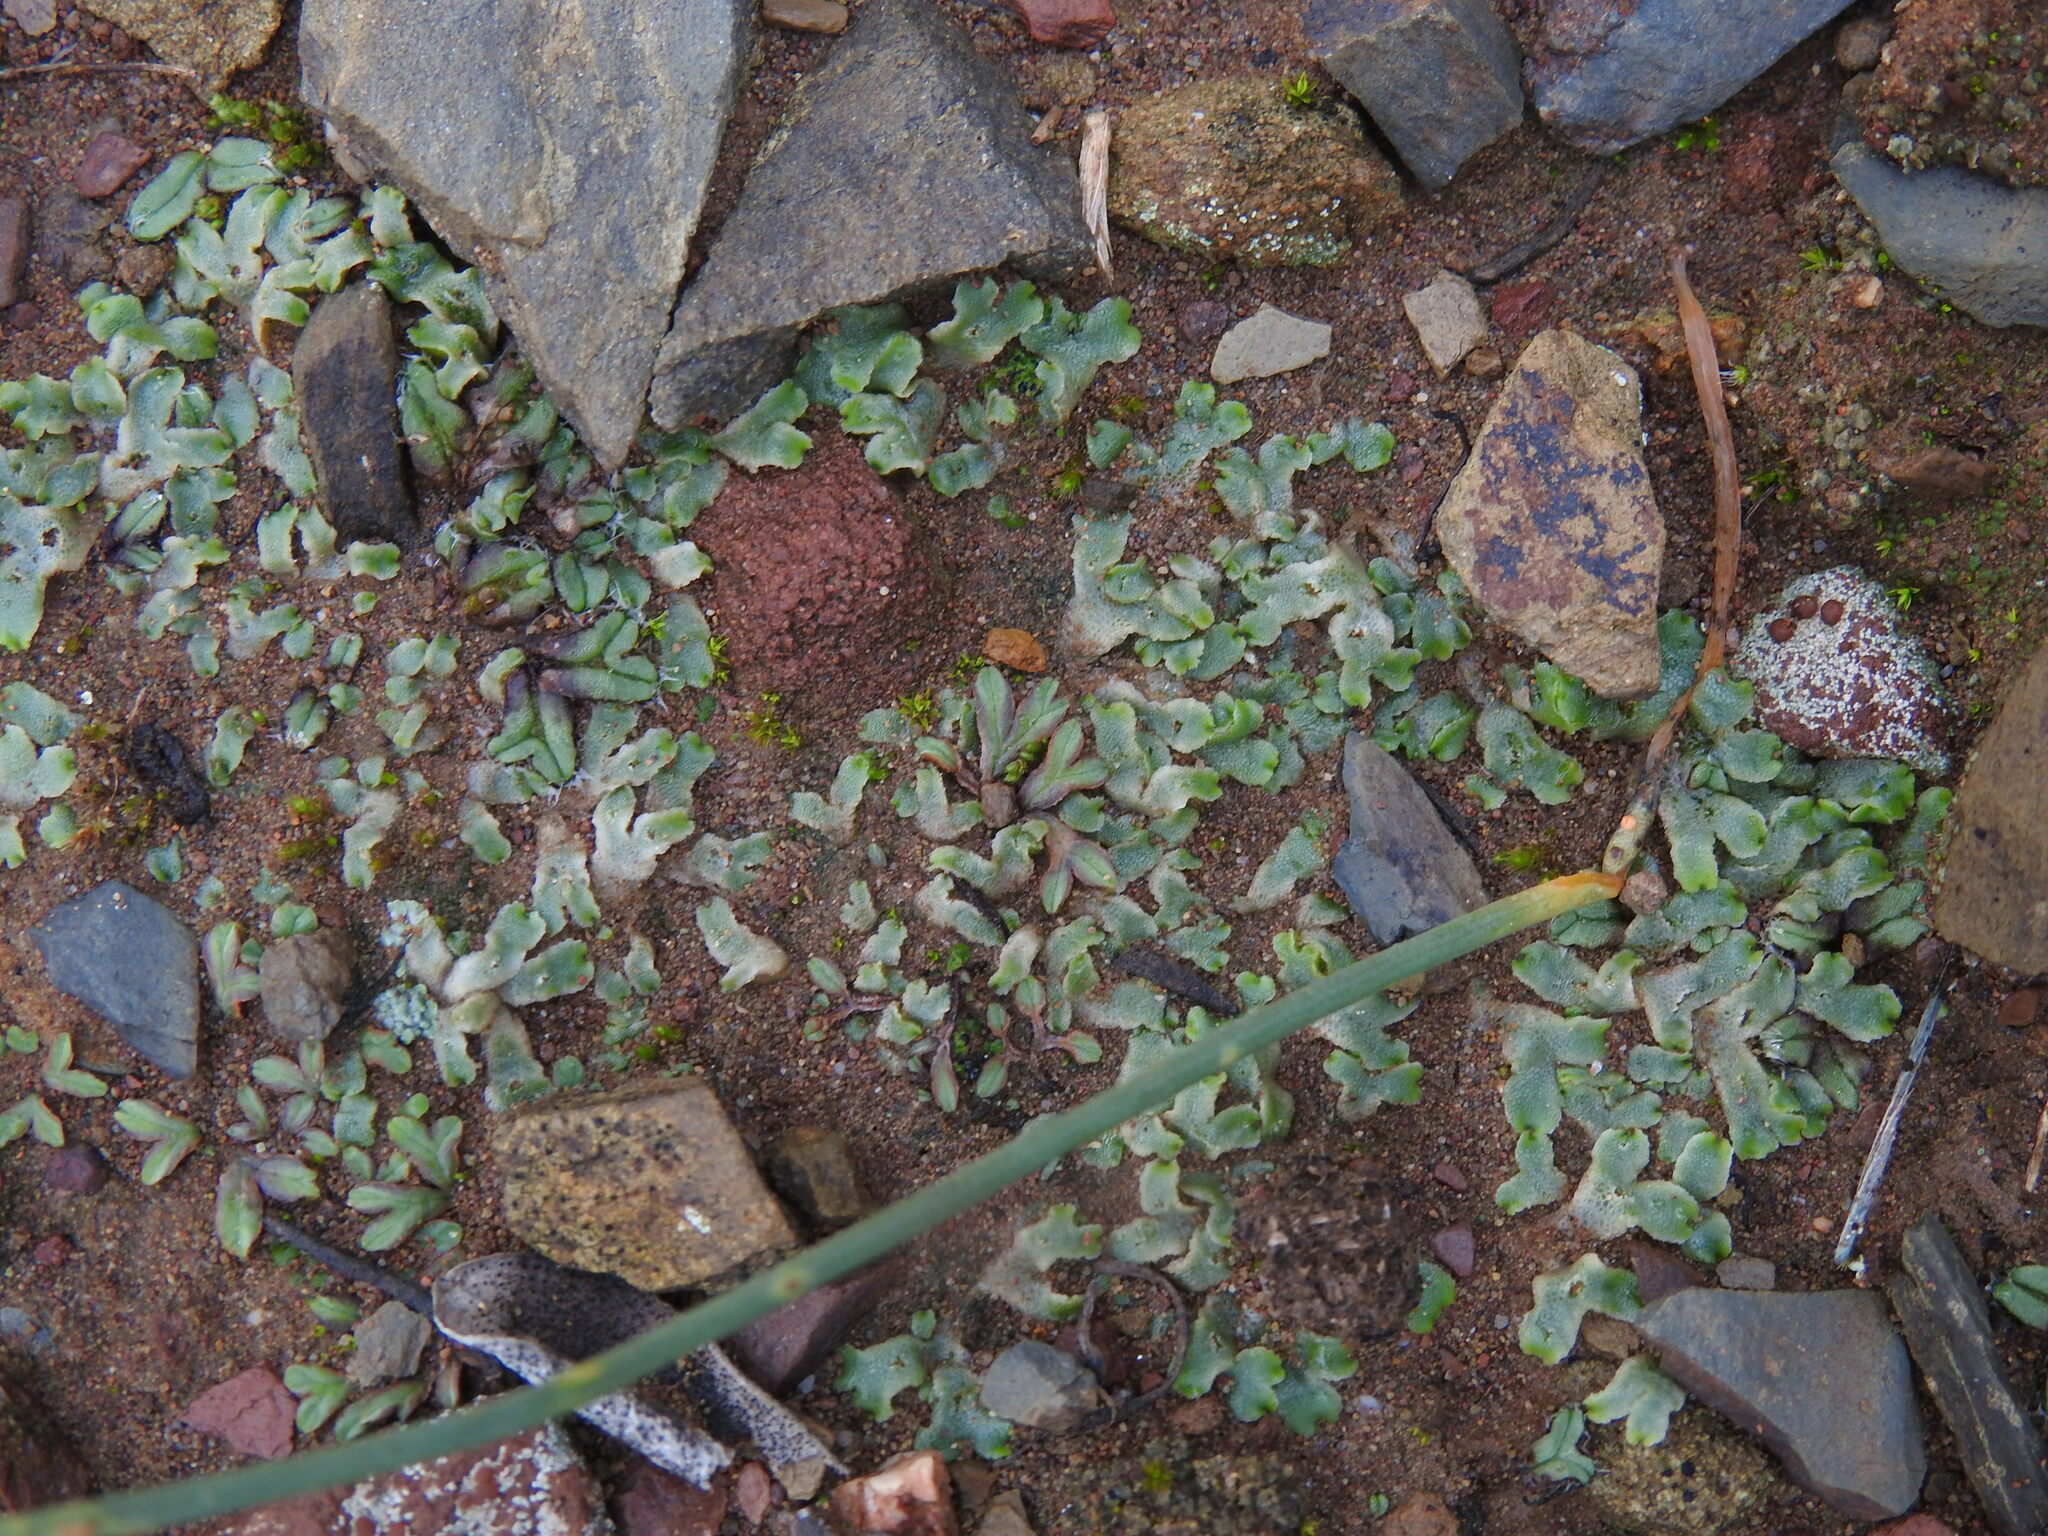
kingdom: Plantae
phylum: Marchantiophyta
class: Marchantiopsida
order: Marchantiales
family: Corsiniaceae
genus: Corsinia
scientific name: Corsinia coriandrina
